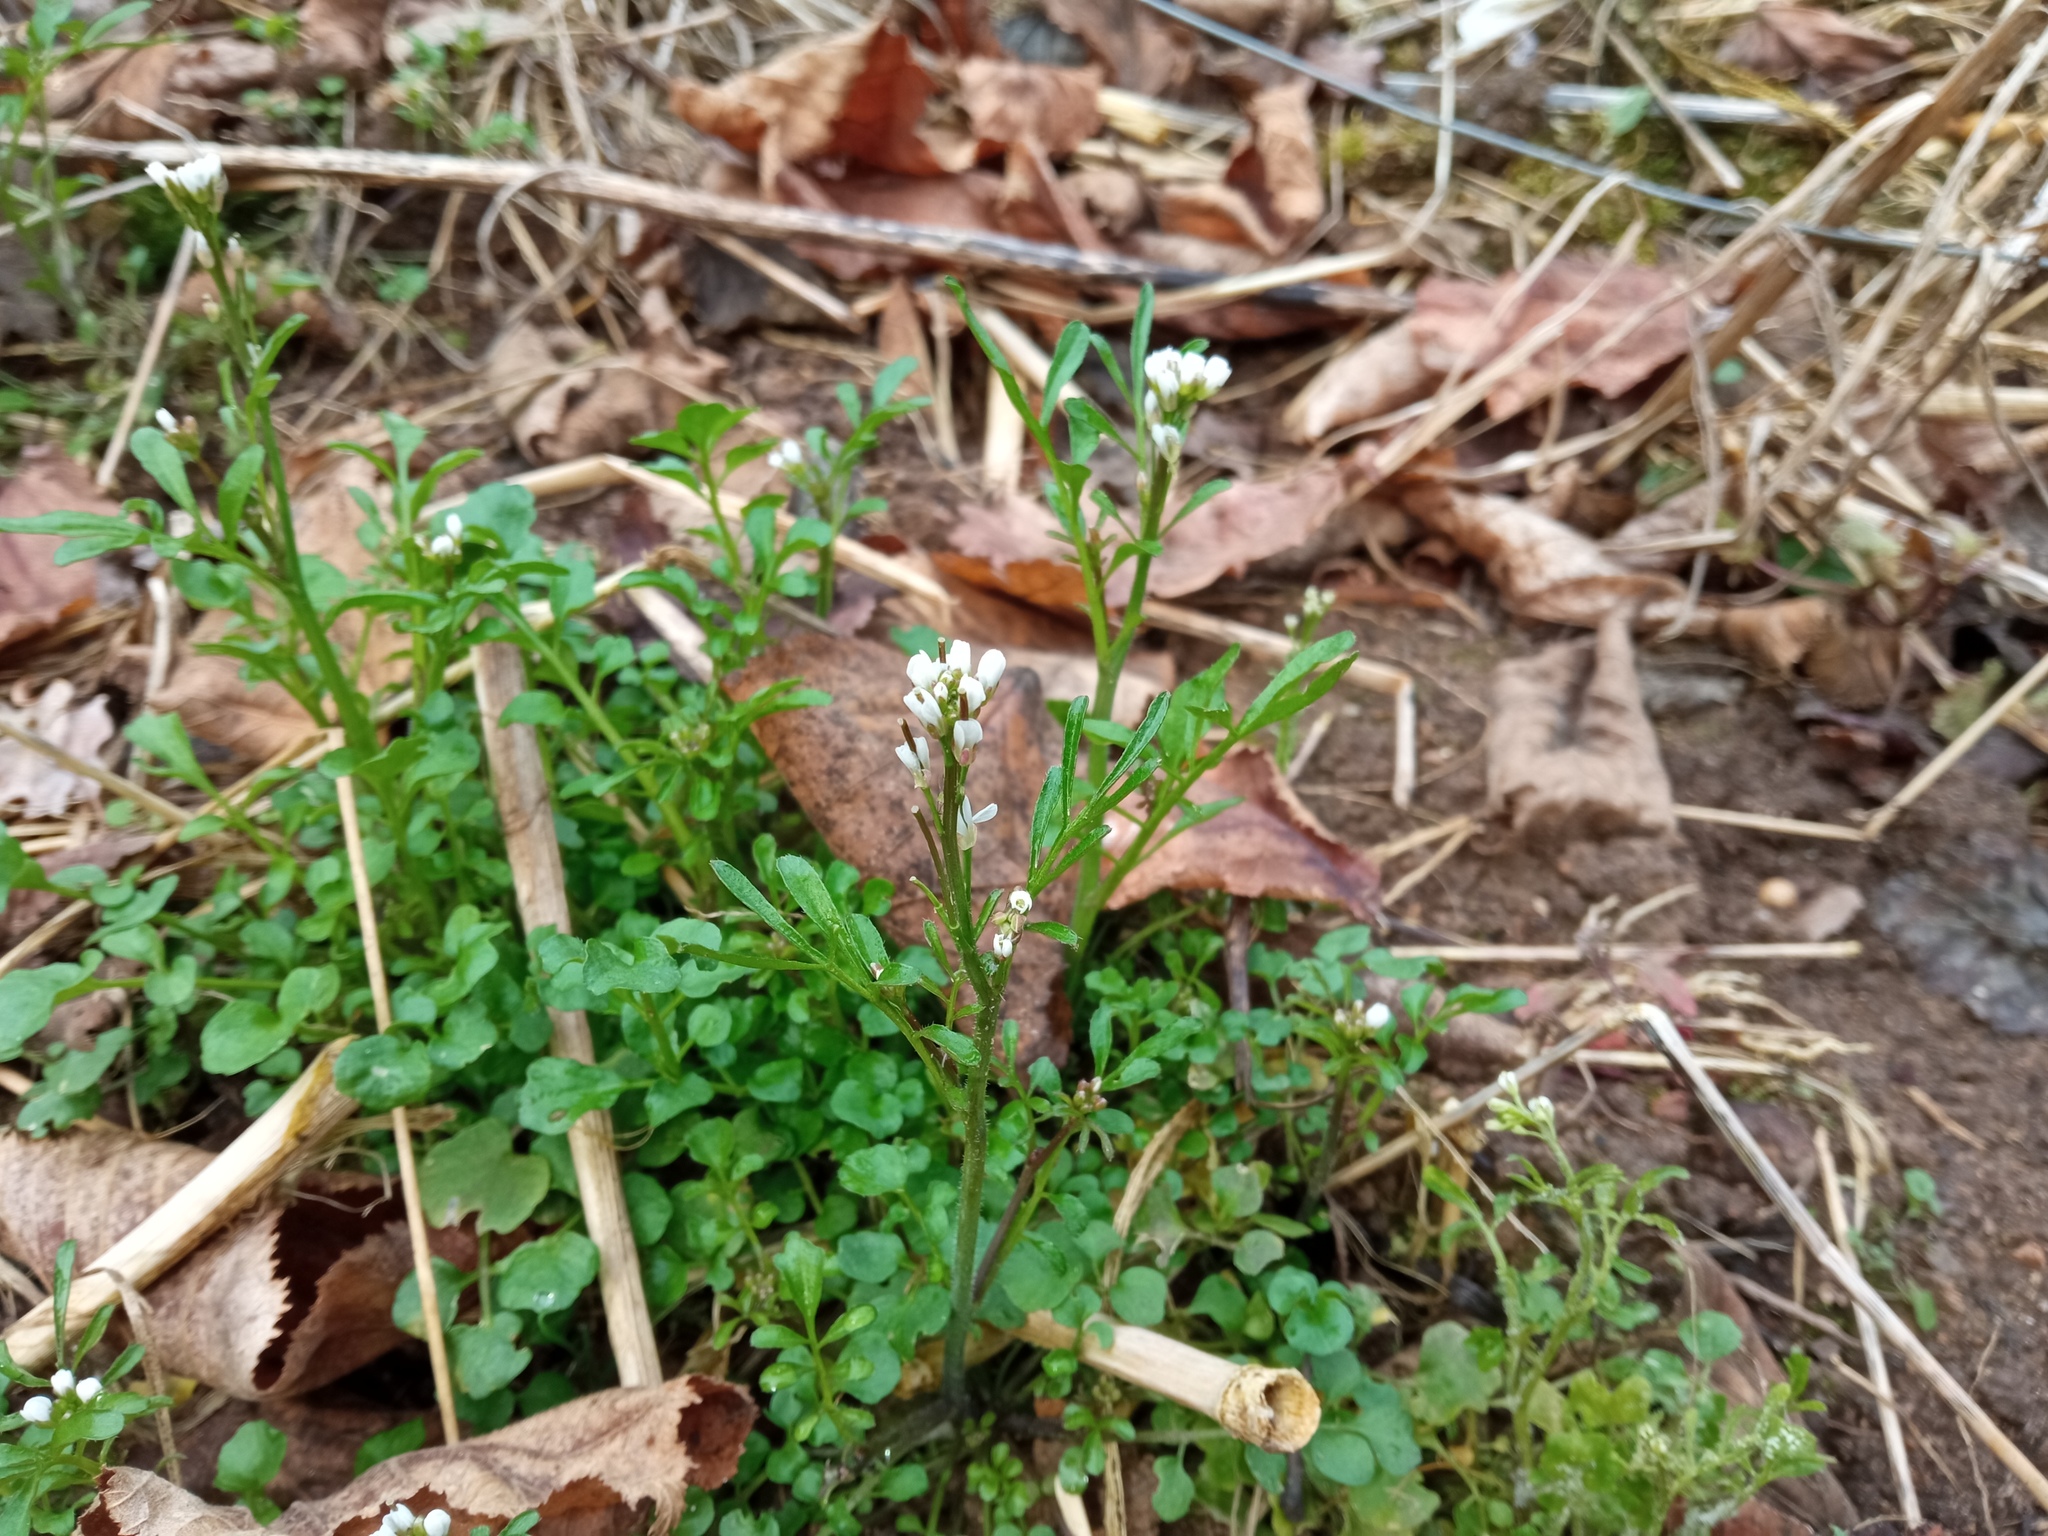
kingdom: Plantae
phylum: Tracheophyta
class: Magnoliopsida
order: Brassicales
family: Brassicaceae
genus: Cardamine
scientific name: Cardamine hirsuta
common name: Hairy bittercress
